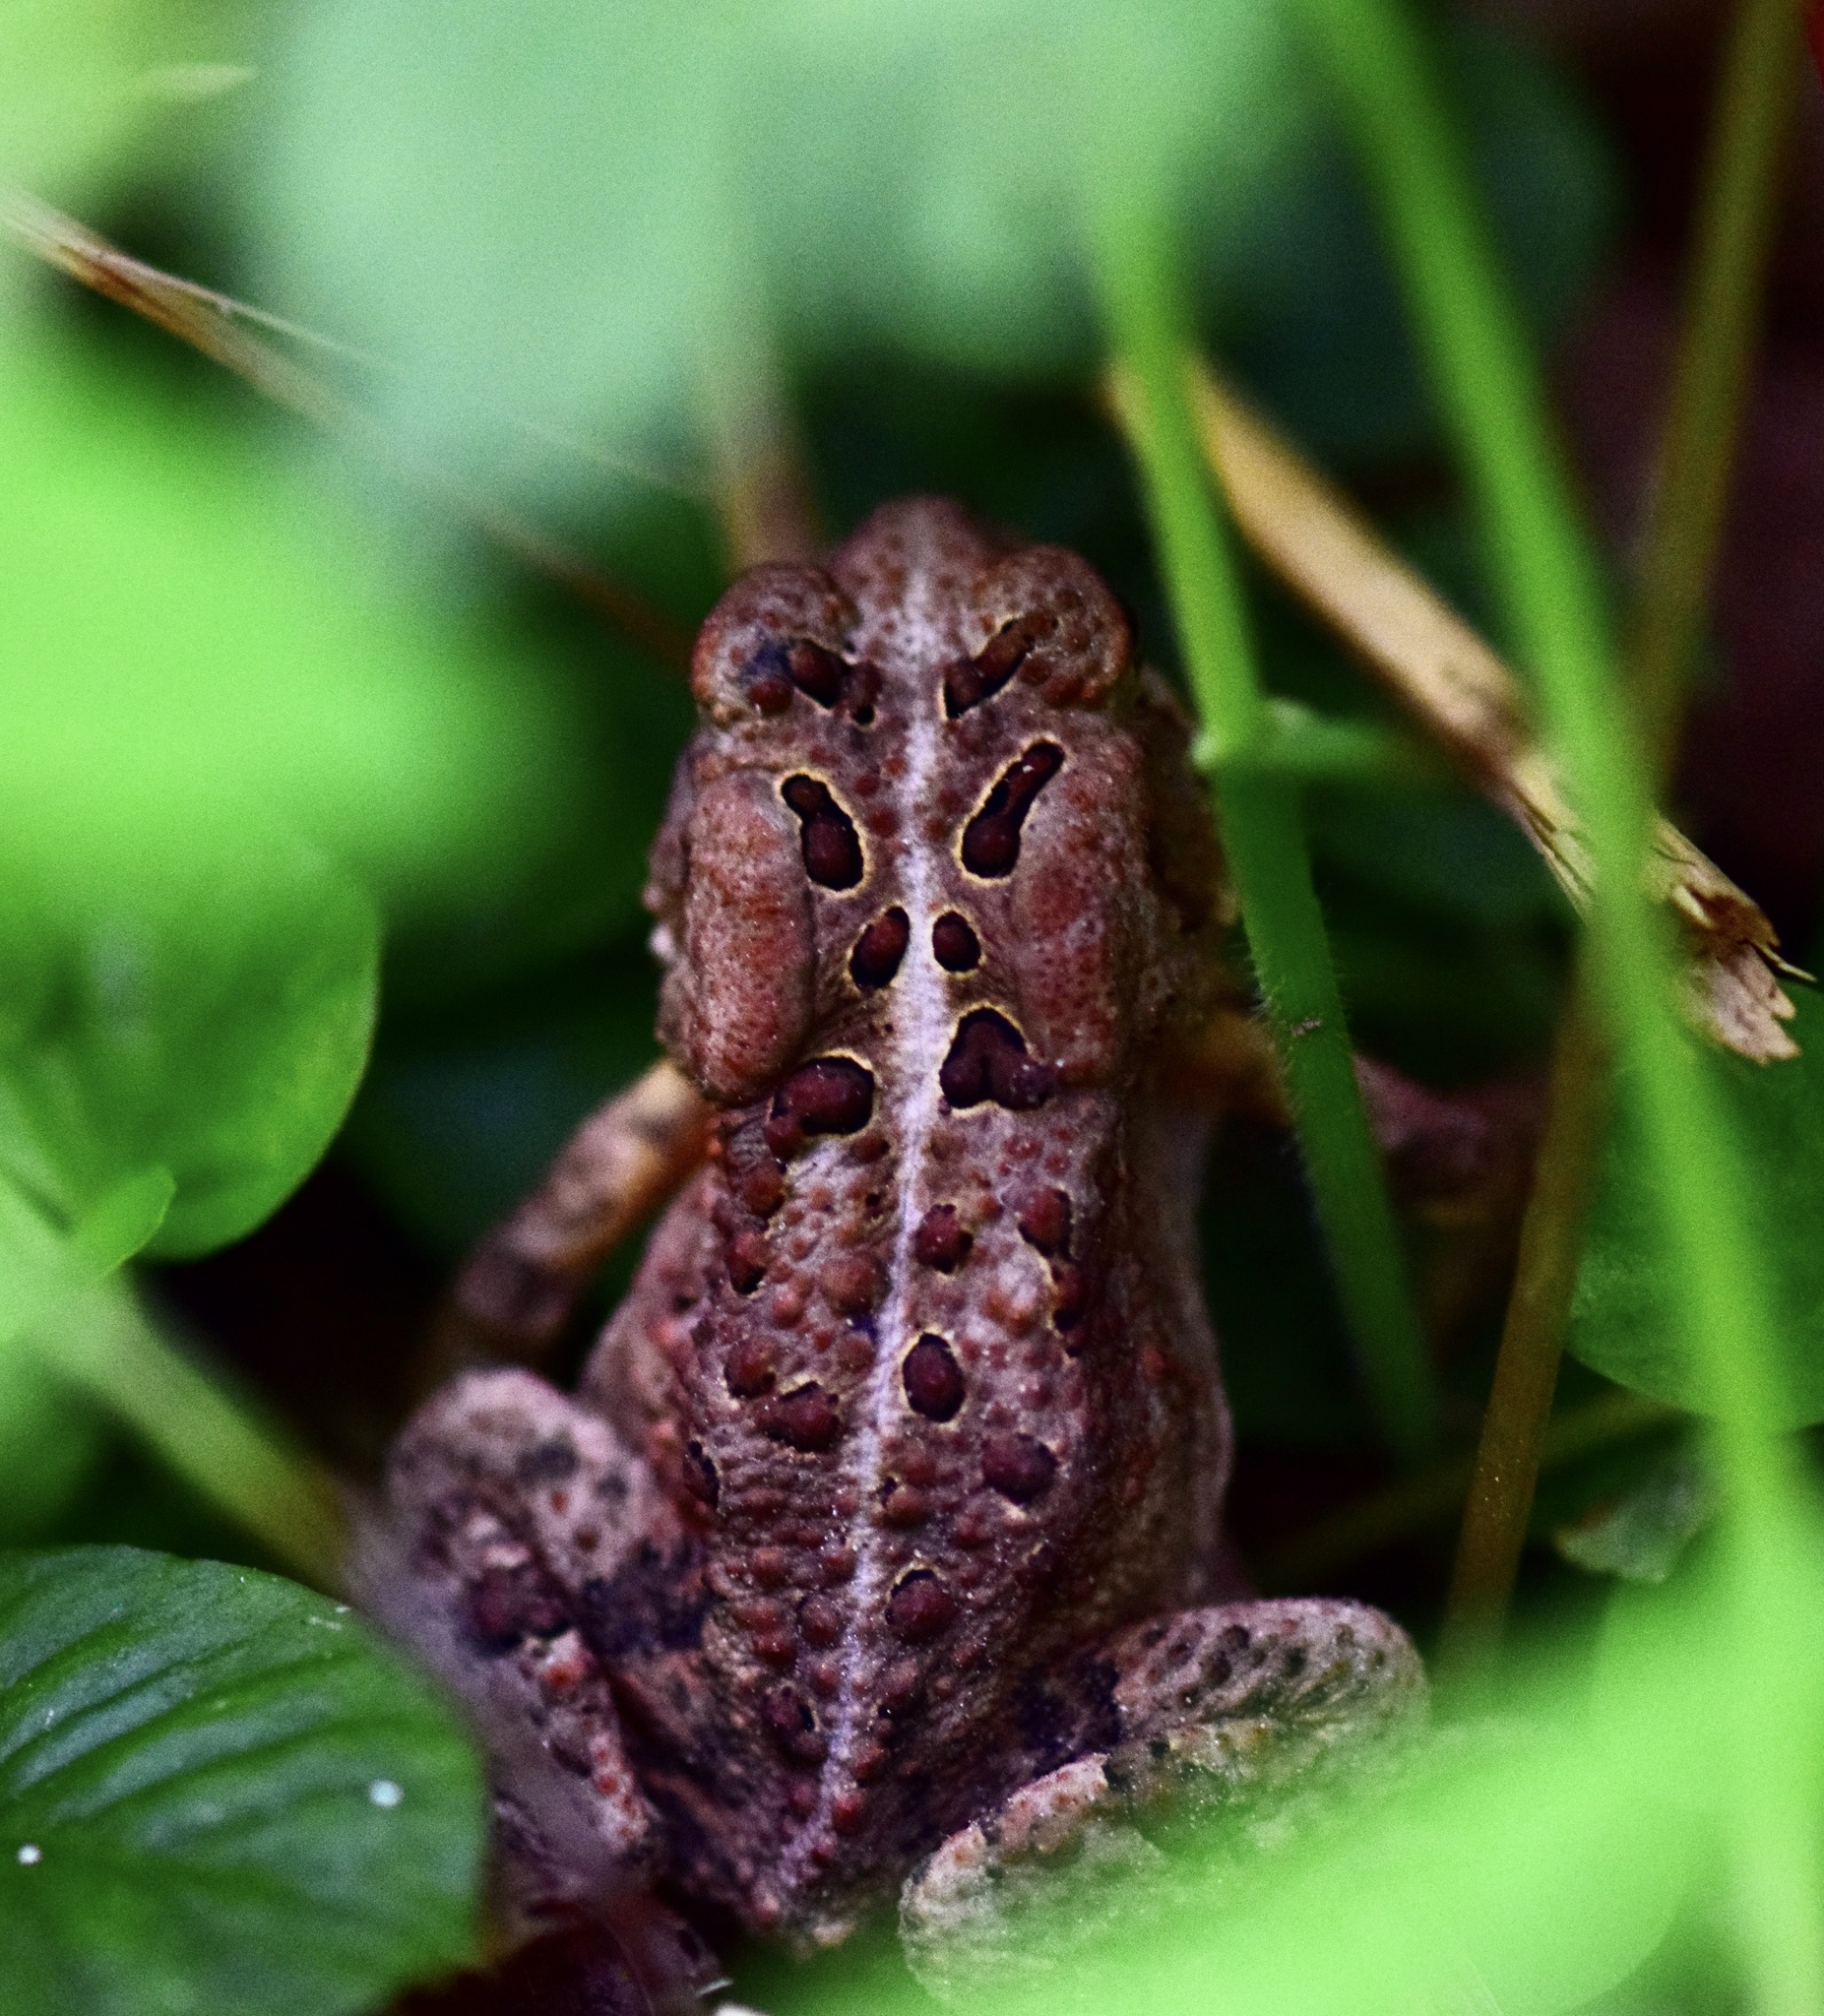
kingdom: Animalia
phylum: Chordata
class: Amphibia
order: Anura
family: Bufonidae
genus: Anaxyrus
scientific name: Anaxyrus americanus
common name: American toad
